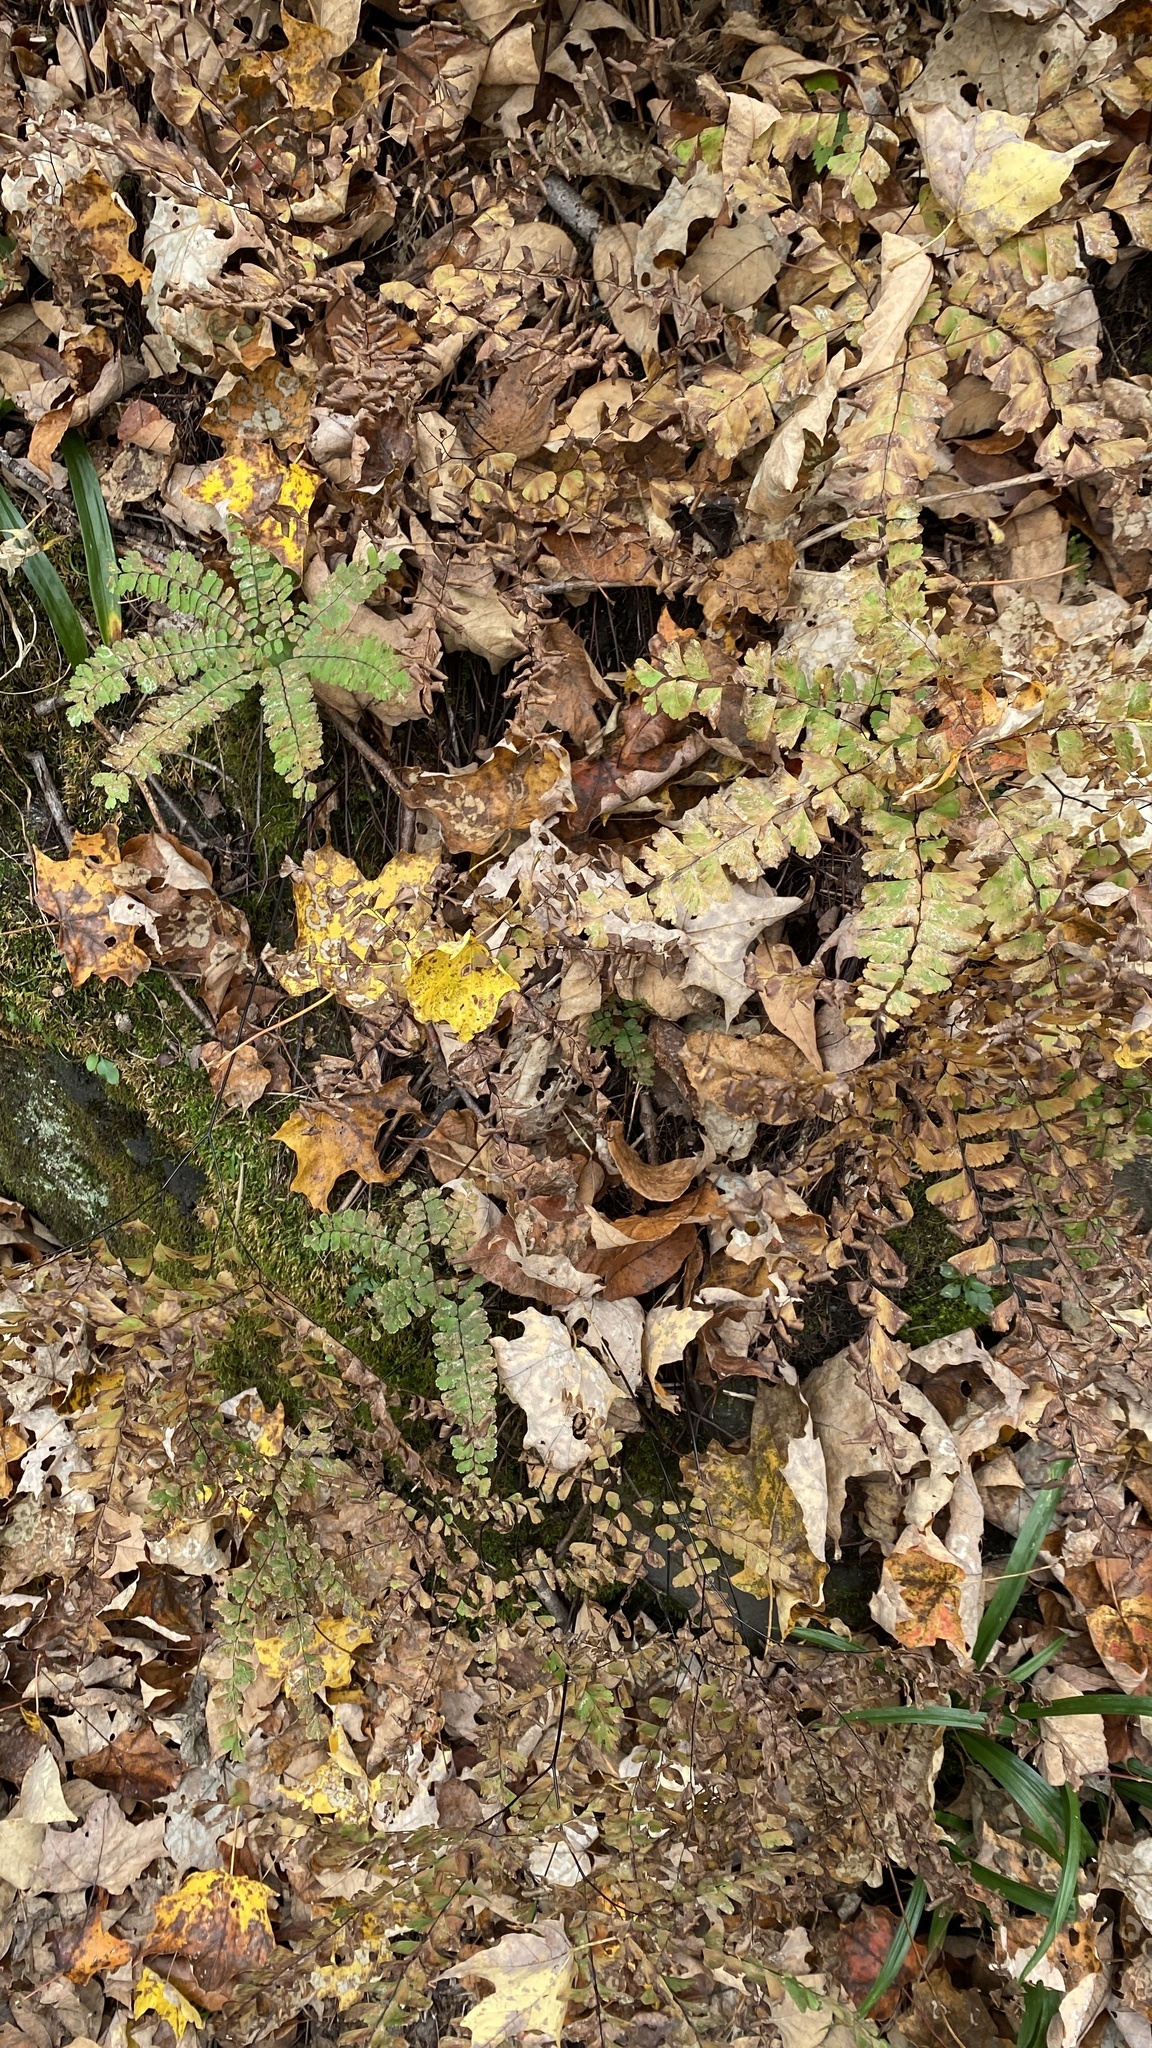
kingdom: Plantae
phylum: Tracheophyta
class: Polypodiopsida
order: Polypodiales
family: Pteridaceae
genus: Adiantum
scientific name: Adiantum pedatum
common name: Five-finger fern
